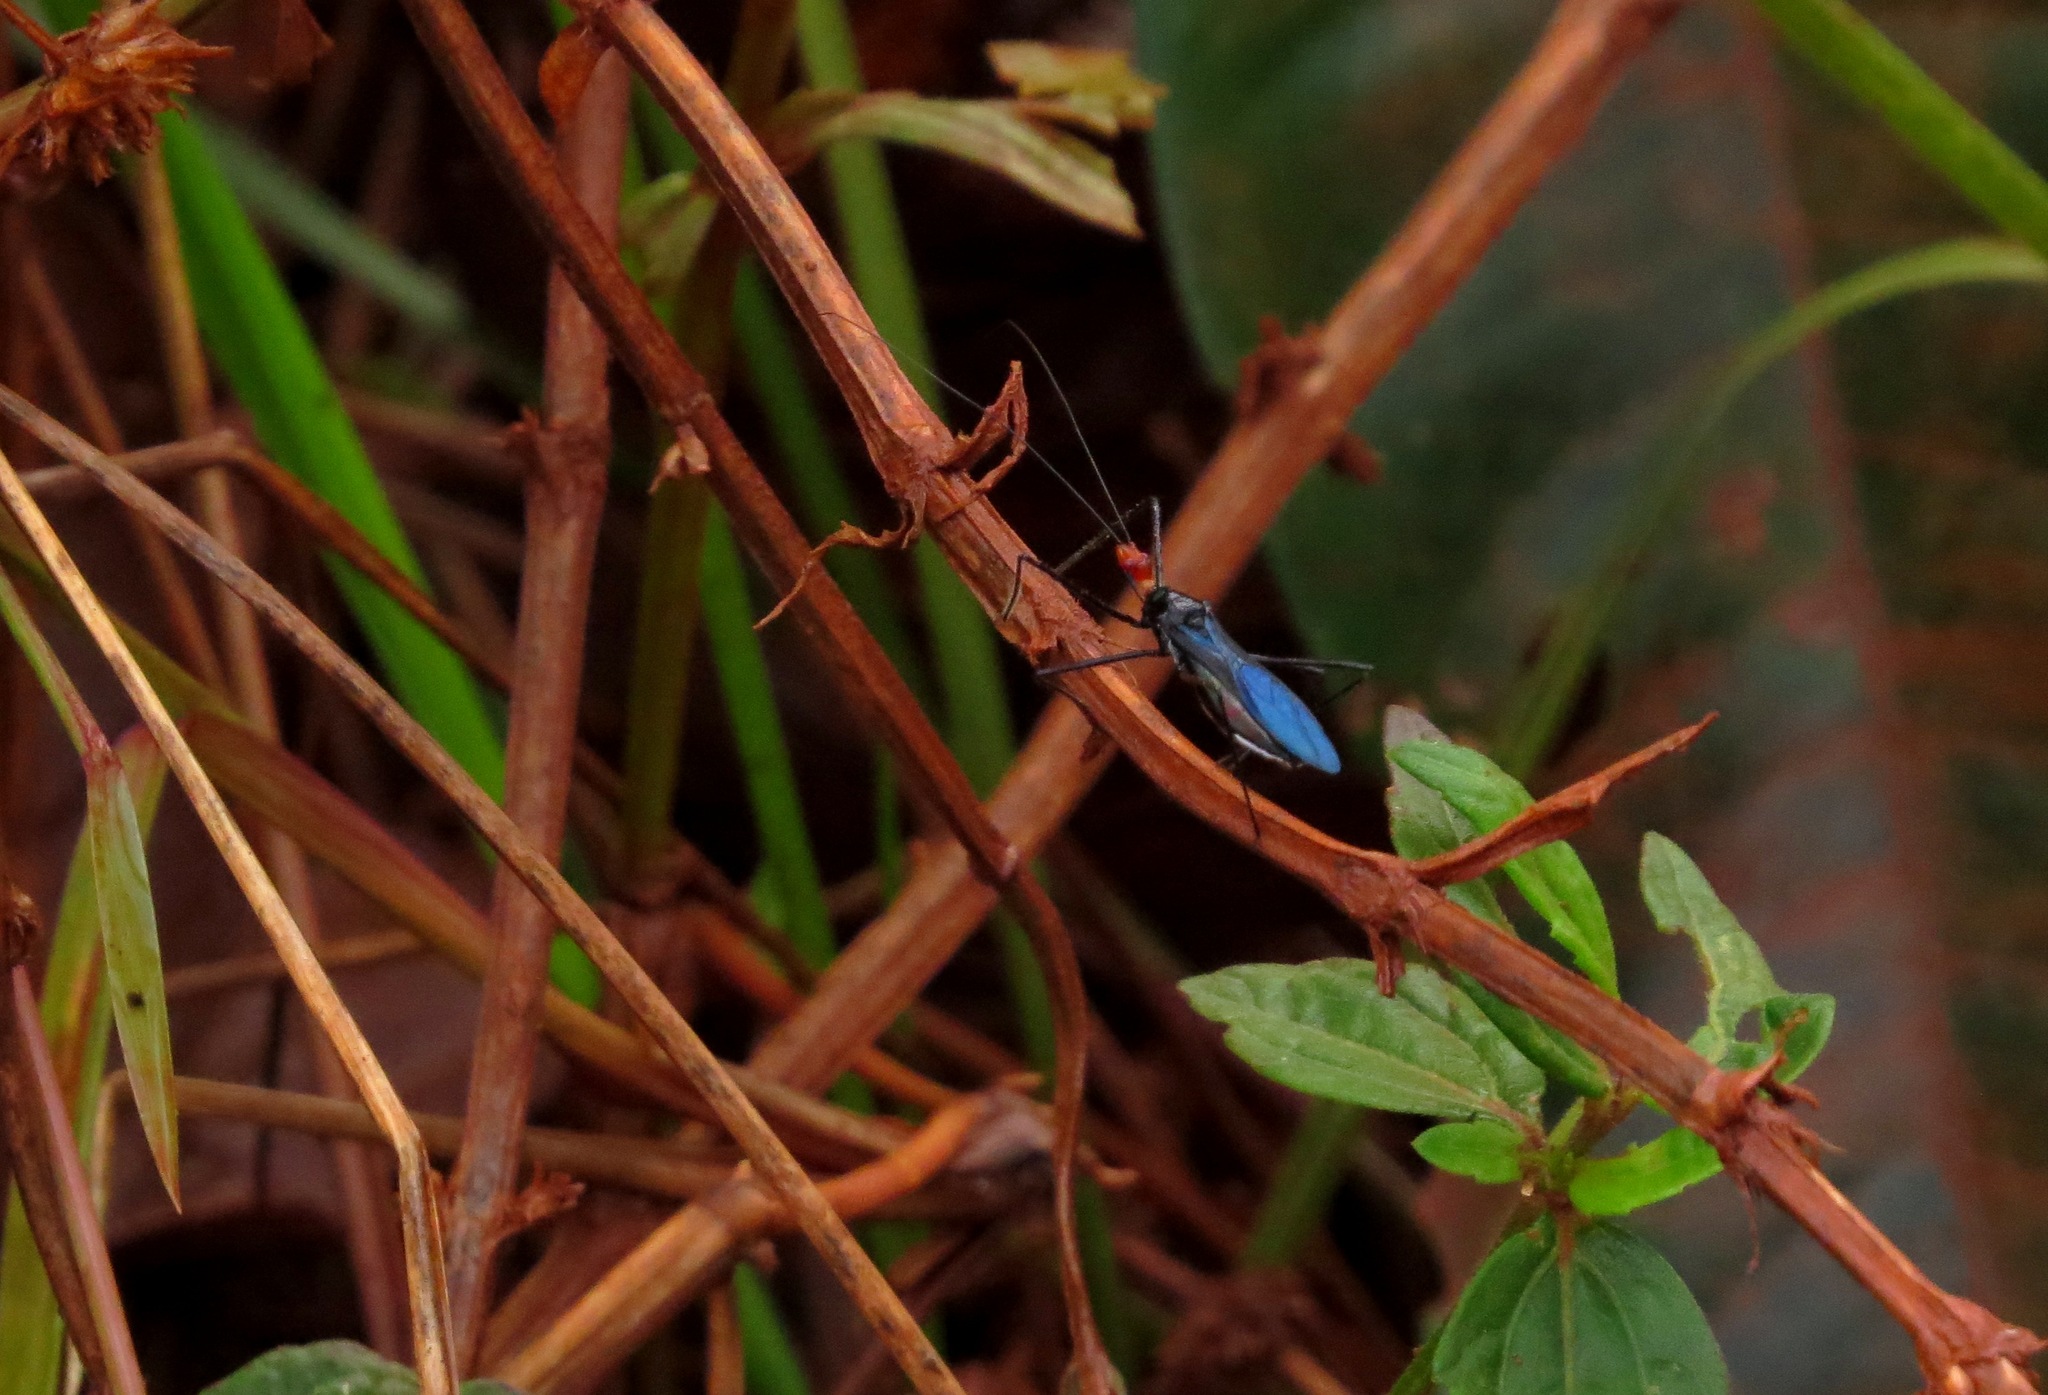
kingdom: Animalia
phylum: Arthropoda
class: Insecta
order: Hemiptera
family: Reduviidae
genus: Zelus
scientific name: Zelus russulumus
